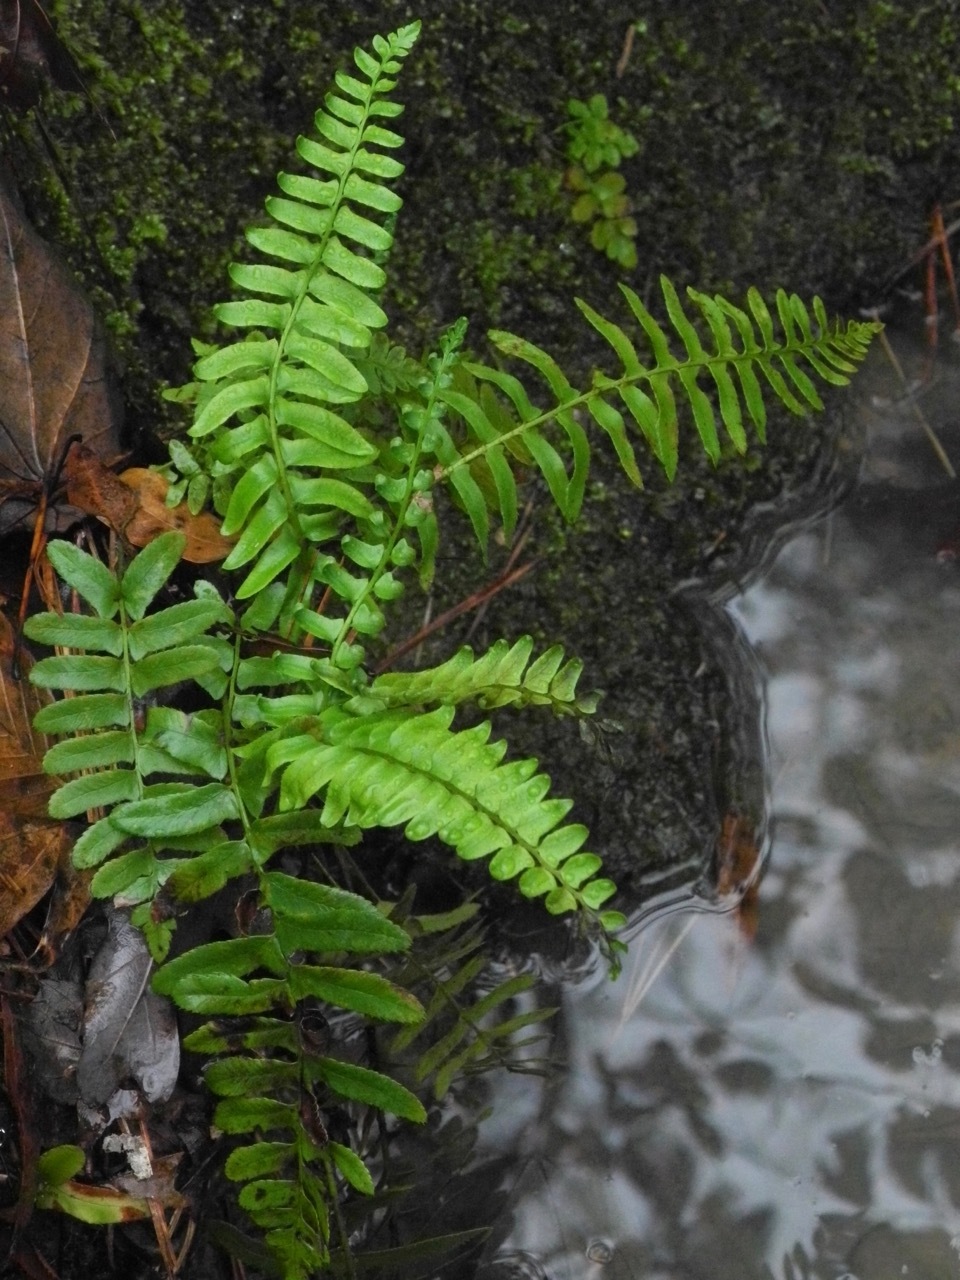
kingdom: Plantae
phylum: Tracheophyta
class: Polypodiopsida
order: Polypodiales
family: Dryopteridaceae
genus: Polystichum
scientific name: Polystichum acrostichoides
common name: Christmas fern
